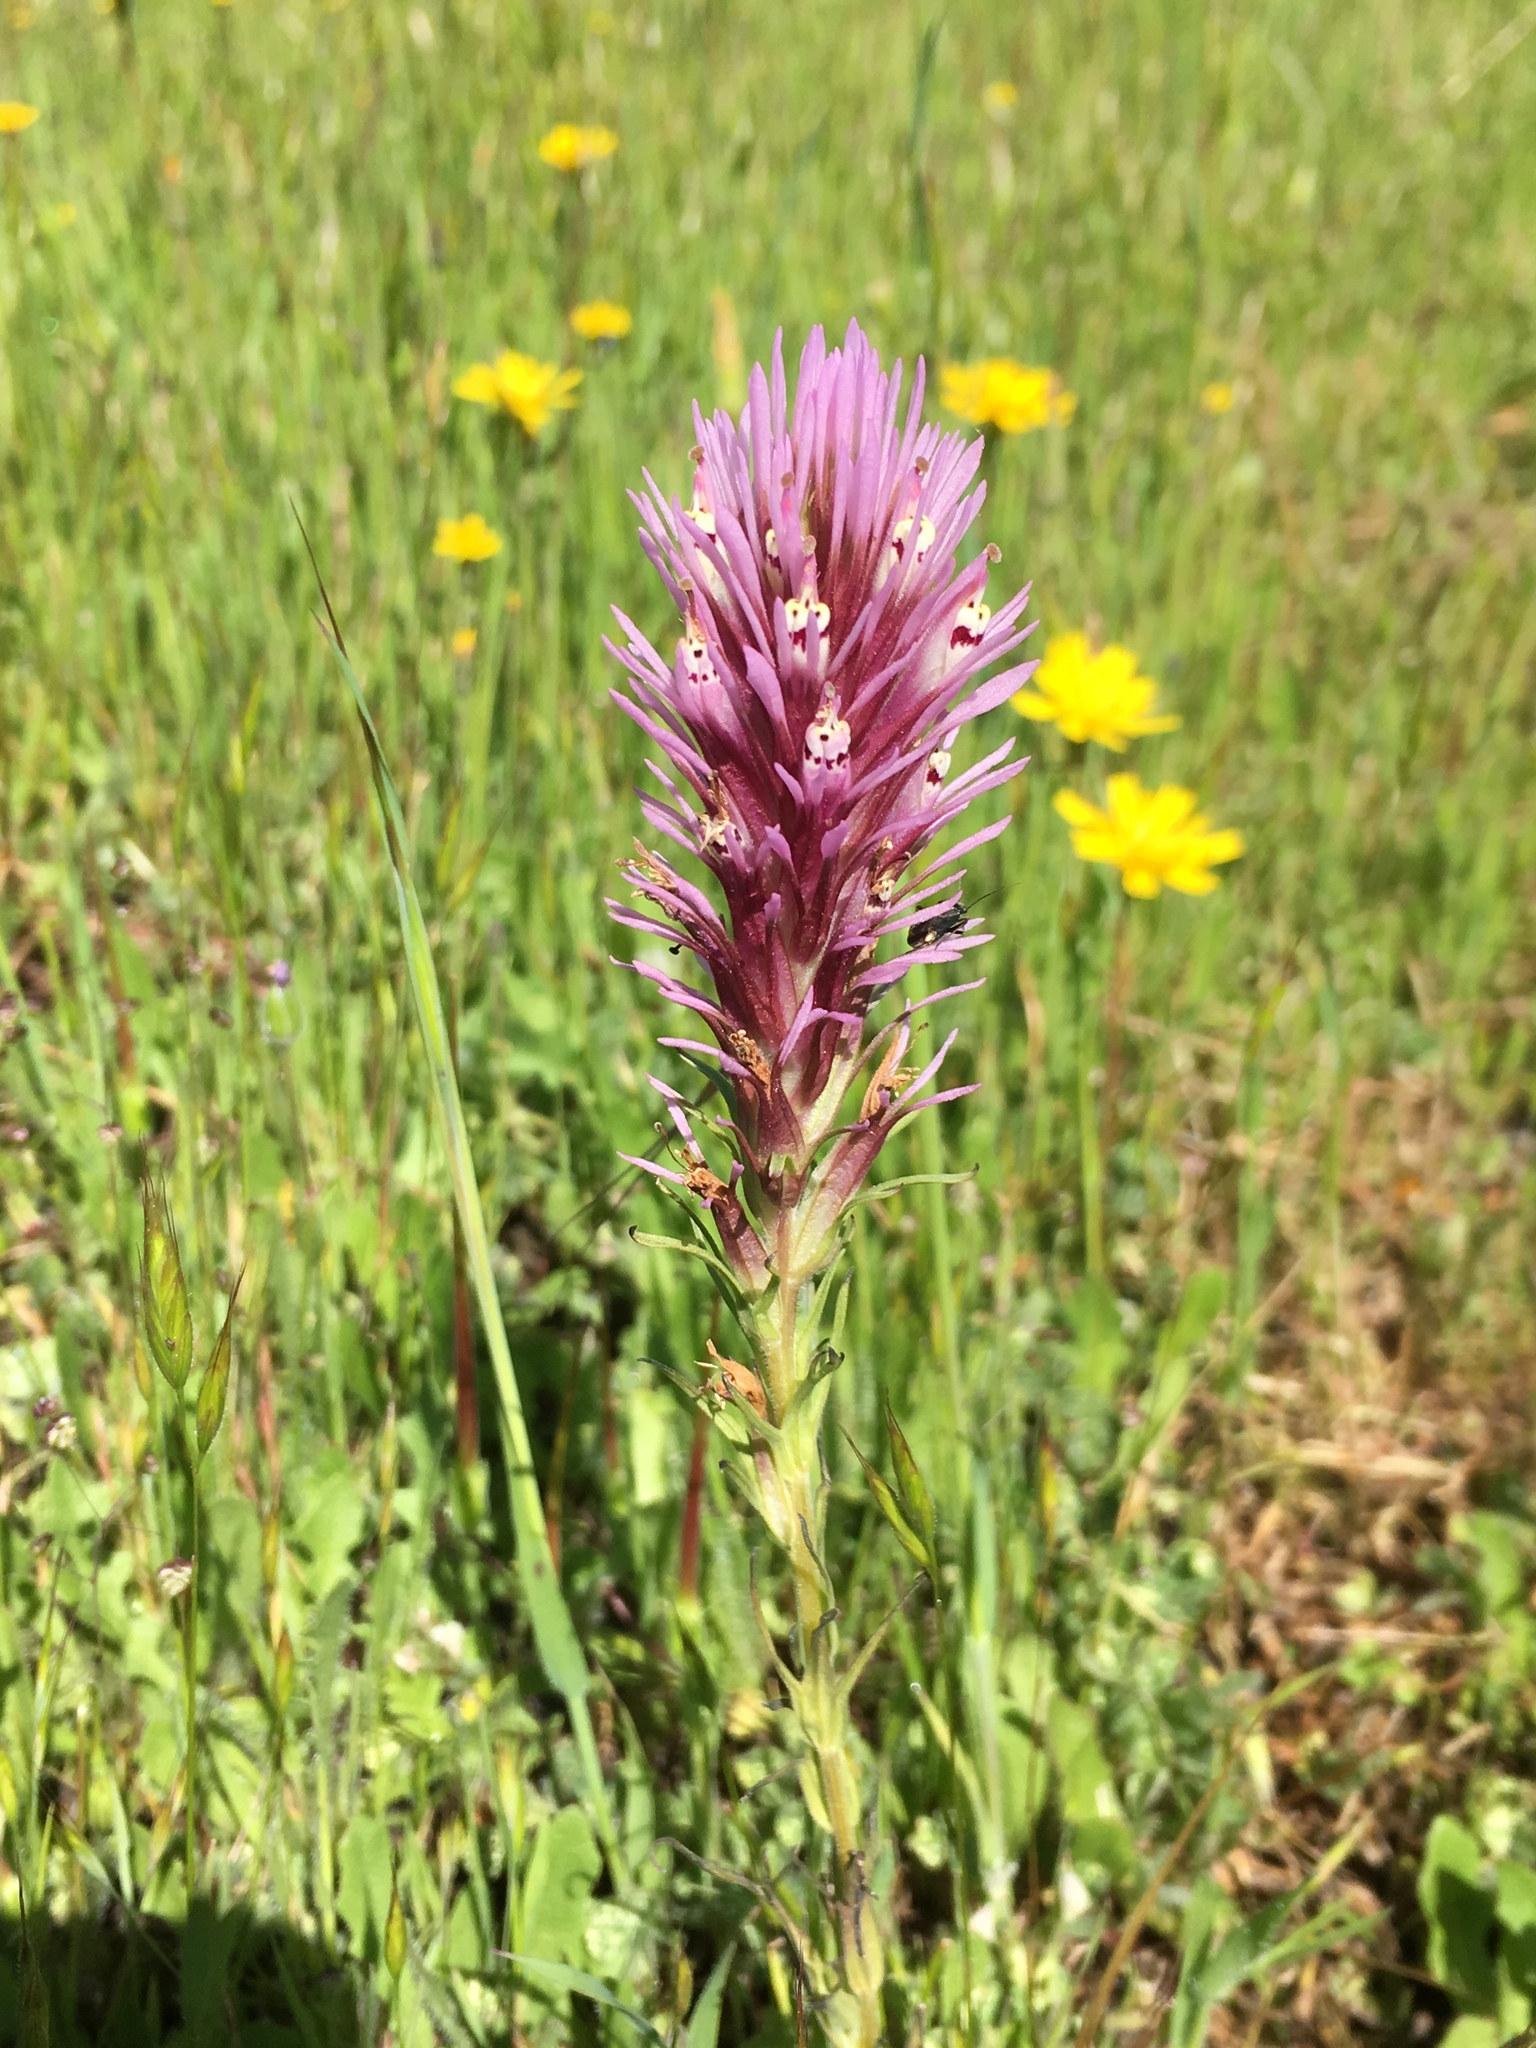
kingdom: Plantae
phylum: Tracheophyta
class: Magnoliopsida
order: Lamiales
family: Orobanchaceae
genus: Castilleja
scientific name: Castilleja densiflora
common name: Dense-flower indian paintbrush
